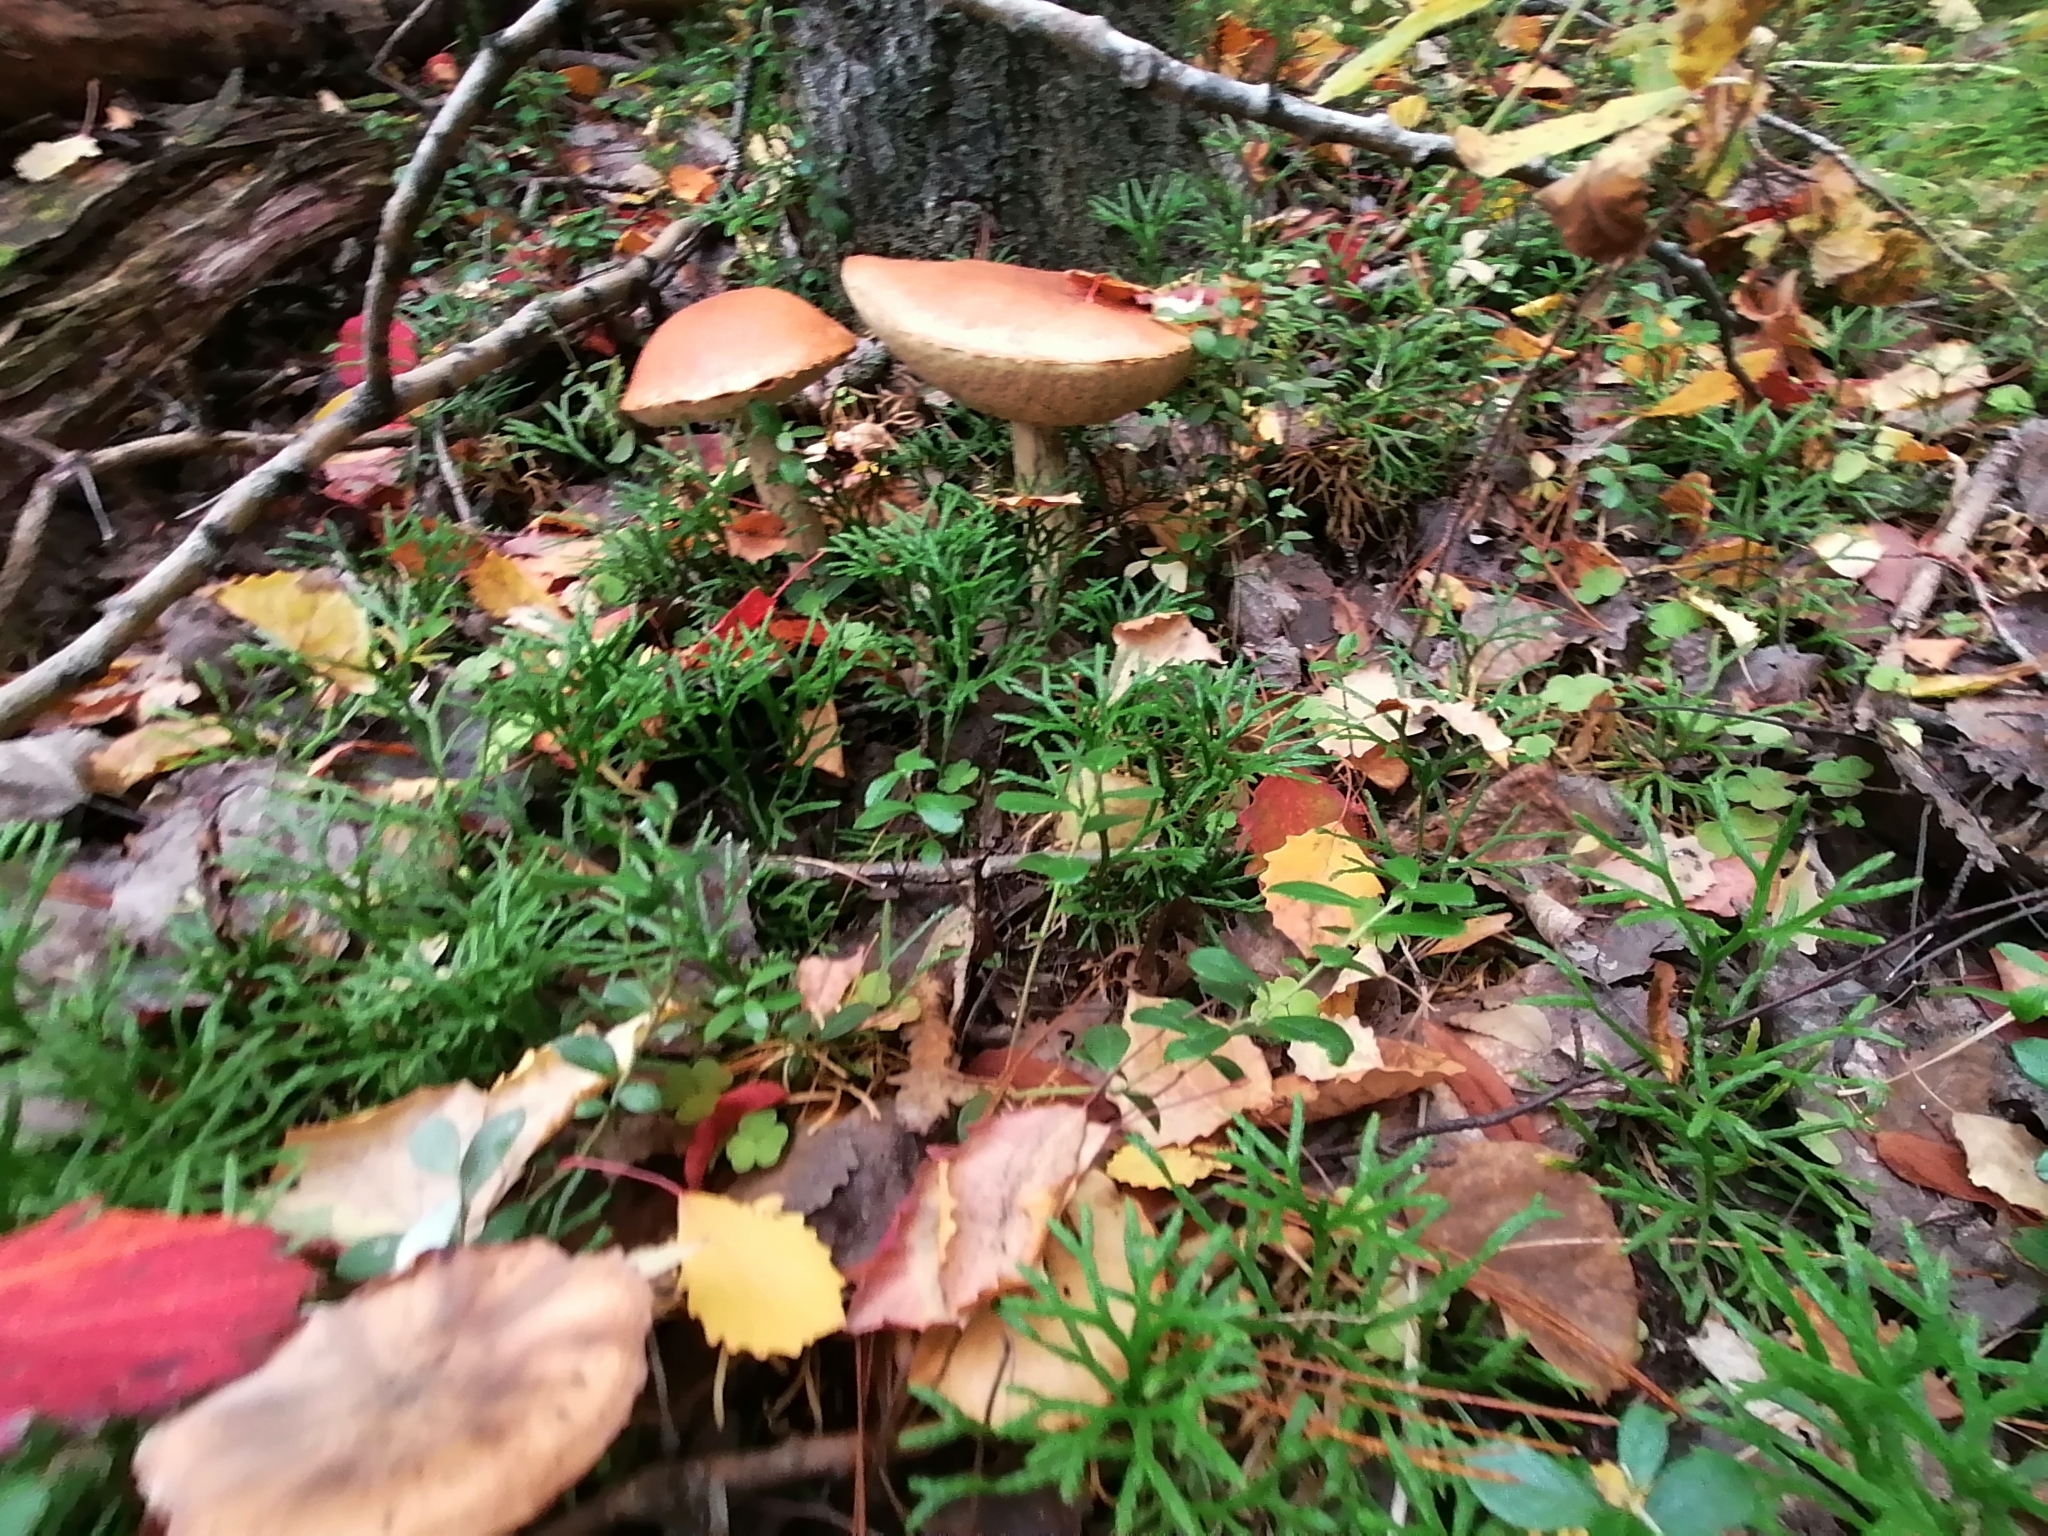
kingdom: Fungi
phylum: Basidiomycota
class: Agaricomycetes
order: Boletales
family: Boletaceae
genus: Leccinum
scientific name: Leccinum scabrum
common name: Blushing bolete
